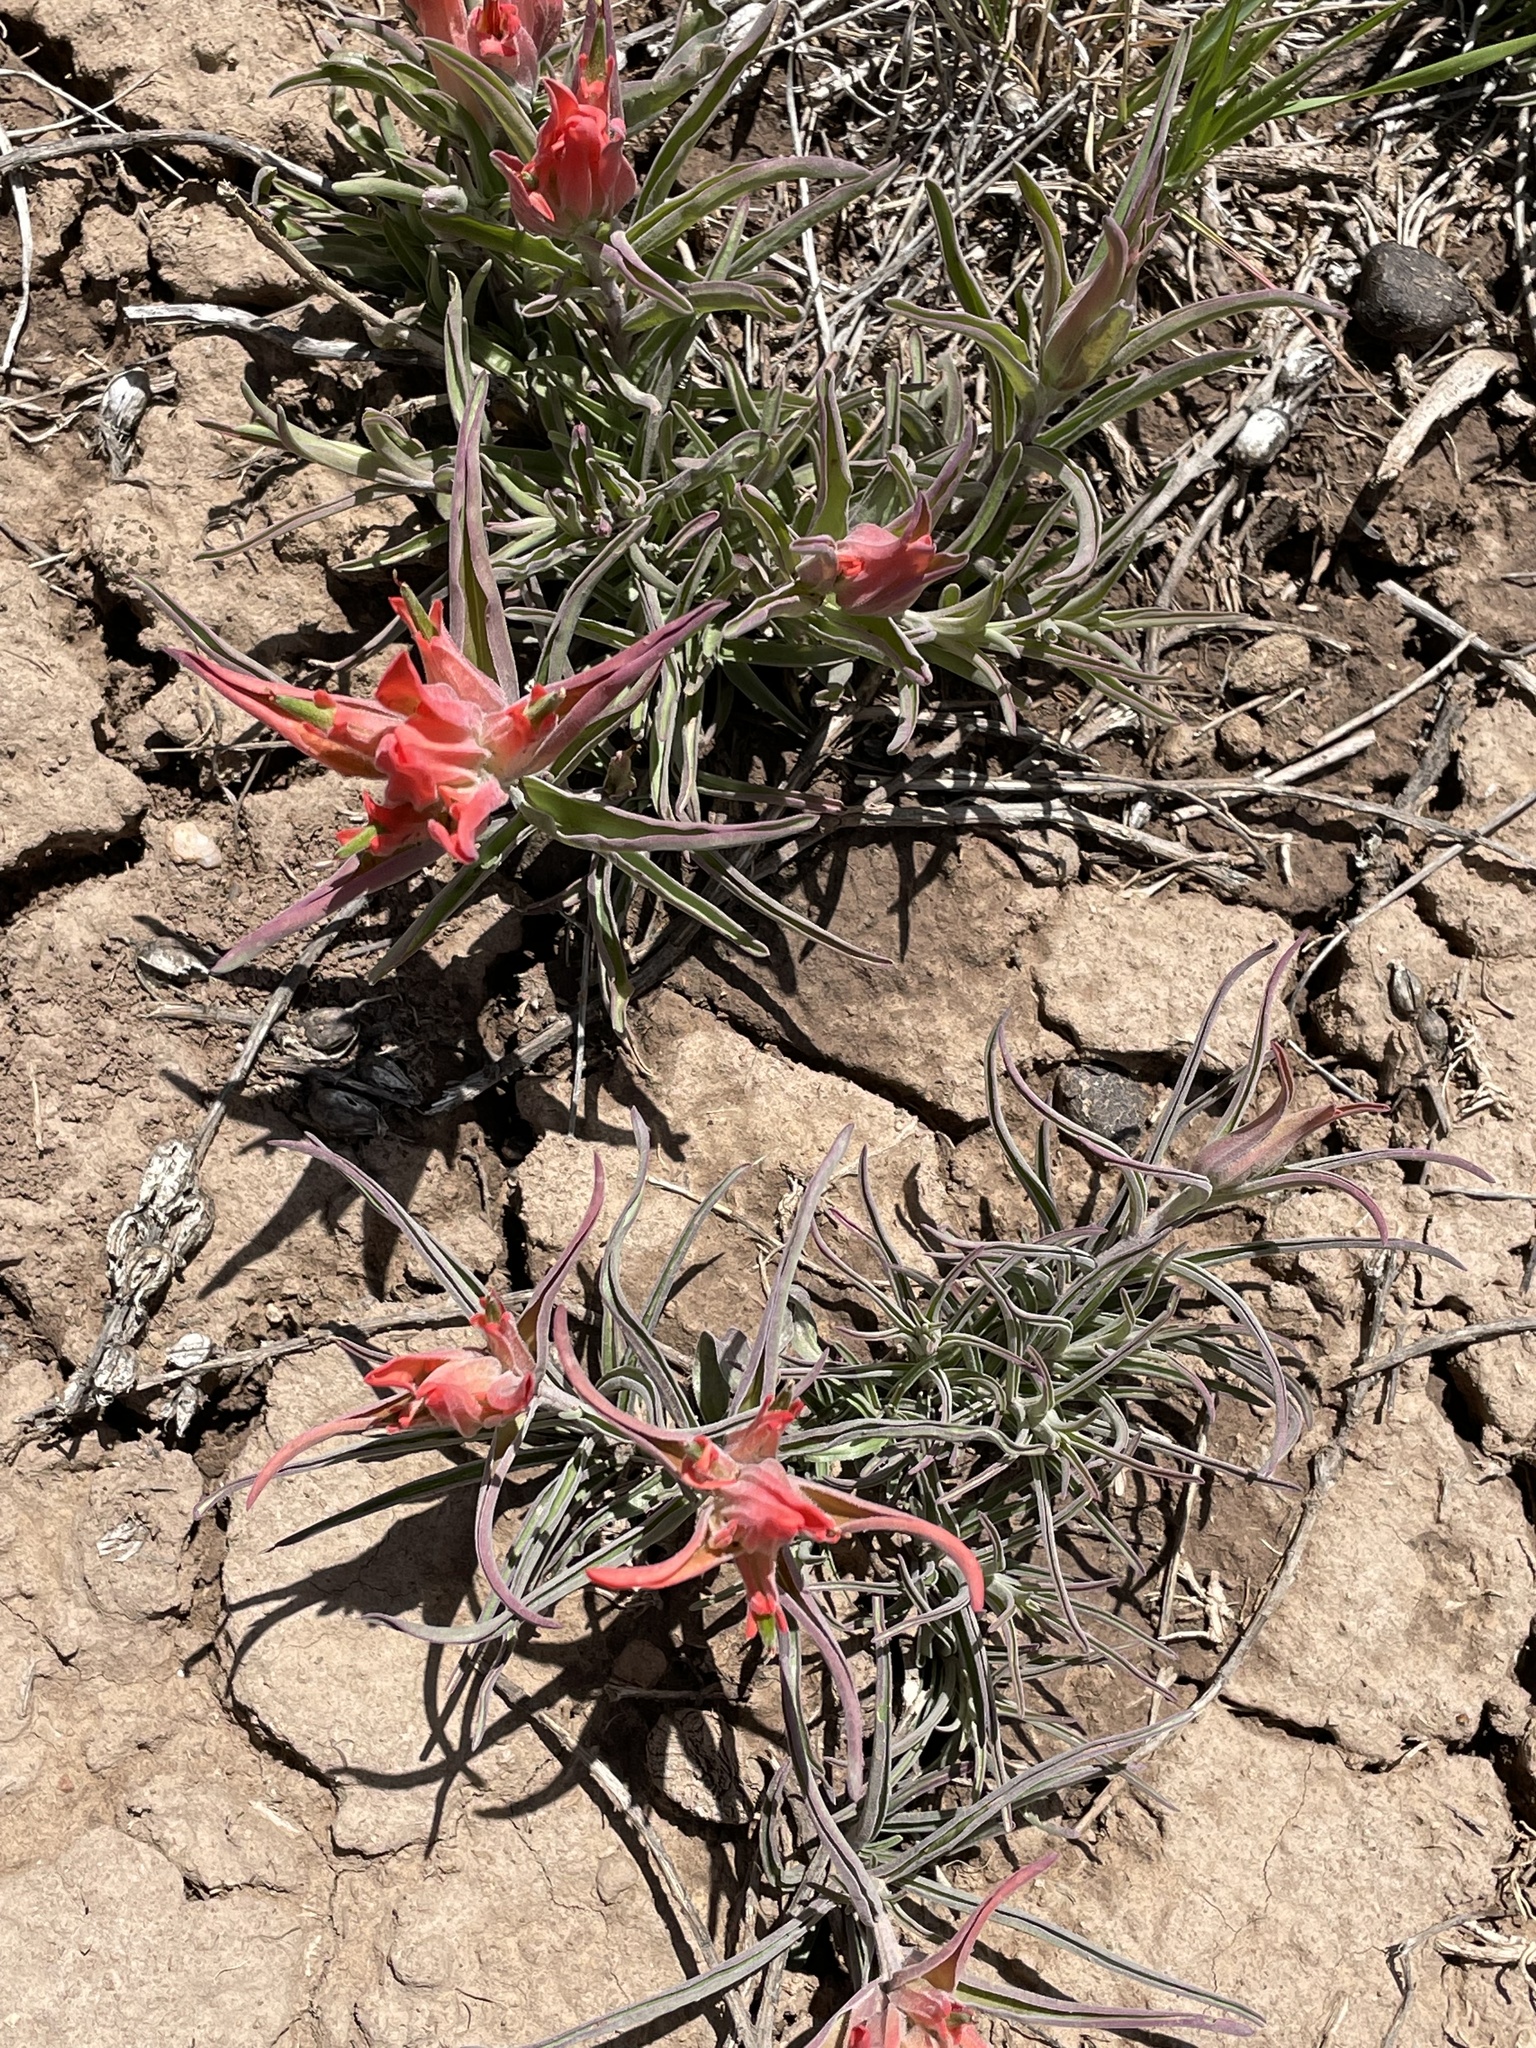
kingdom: Plantae
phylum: Tracheophyta
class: Magnoliopsida
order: Lamiales
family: Orobanchaceae
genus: Castilleja
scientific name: Castilleja integra
